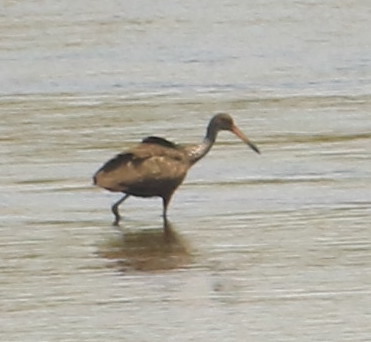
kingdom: Animalia
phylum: Chordata
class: Aves
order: Gruiformes
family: Aramidae
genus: Aramus
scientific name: Aramus guarauna
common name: Limpkin
